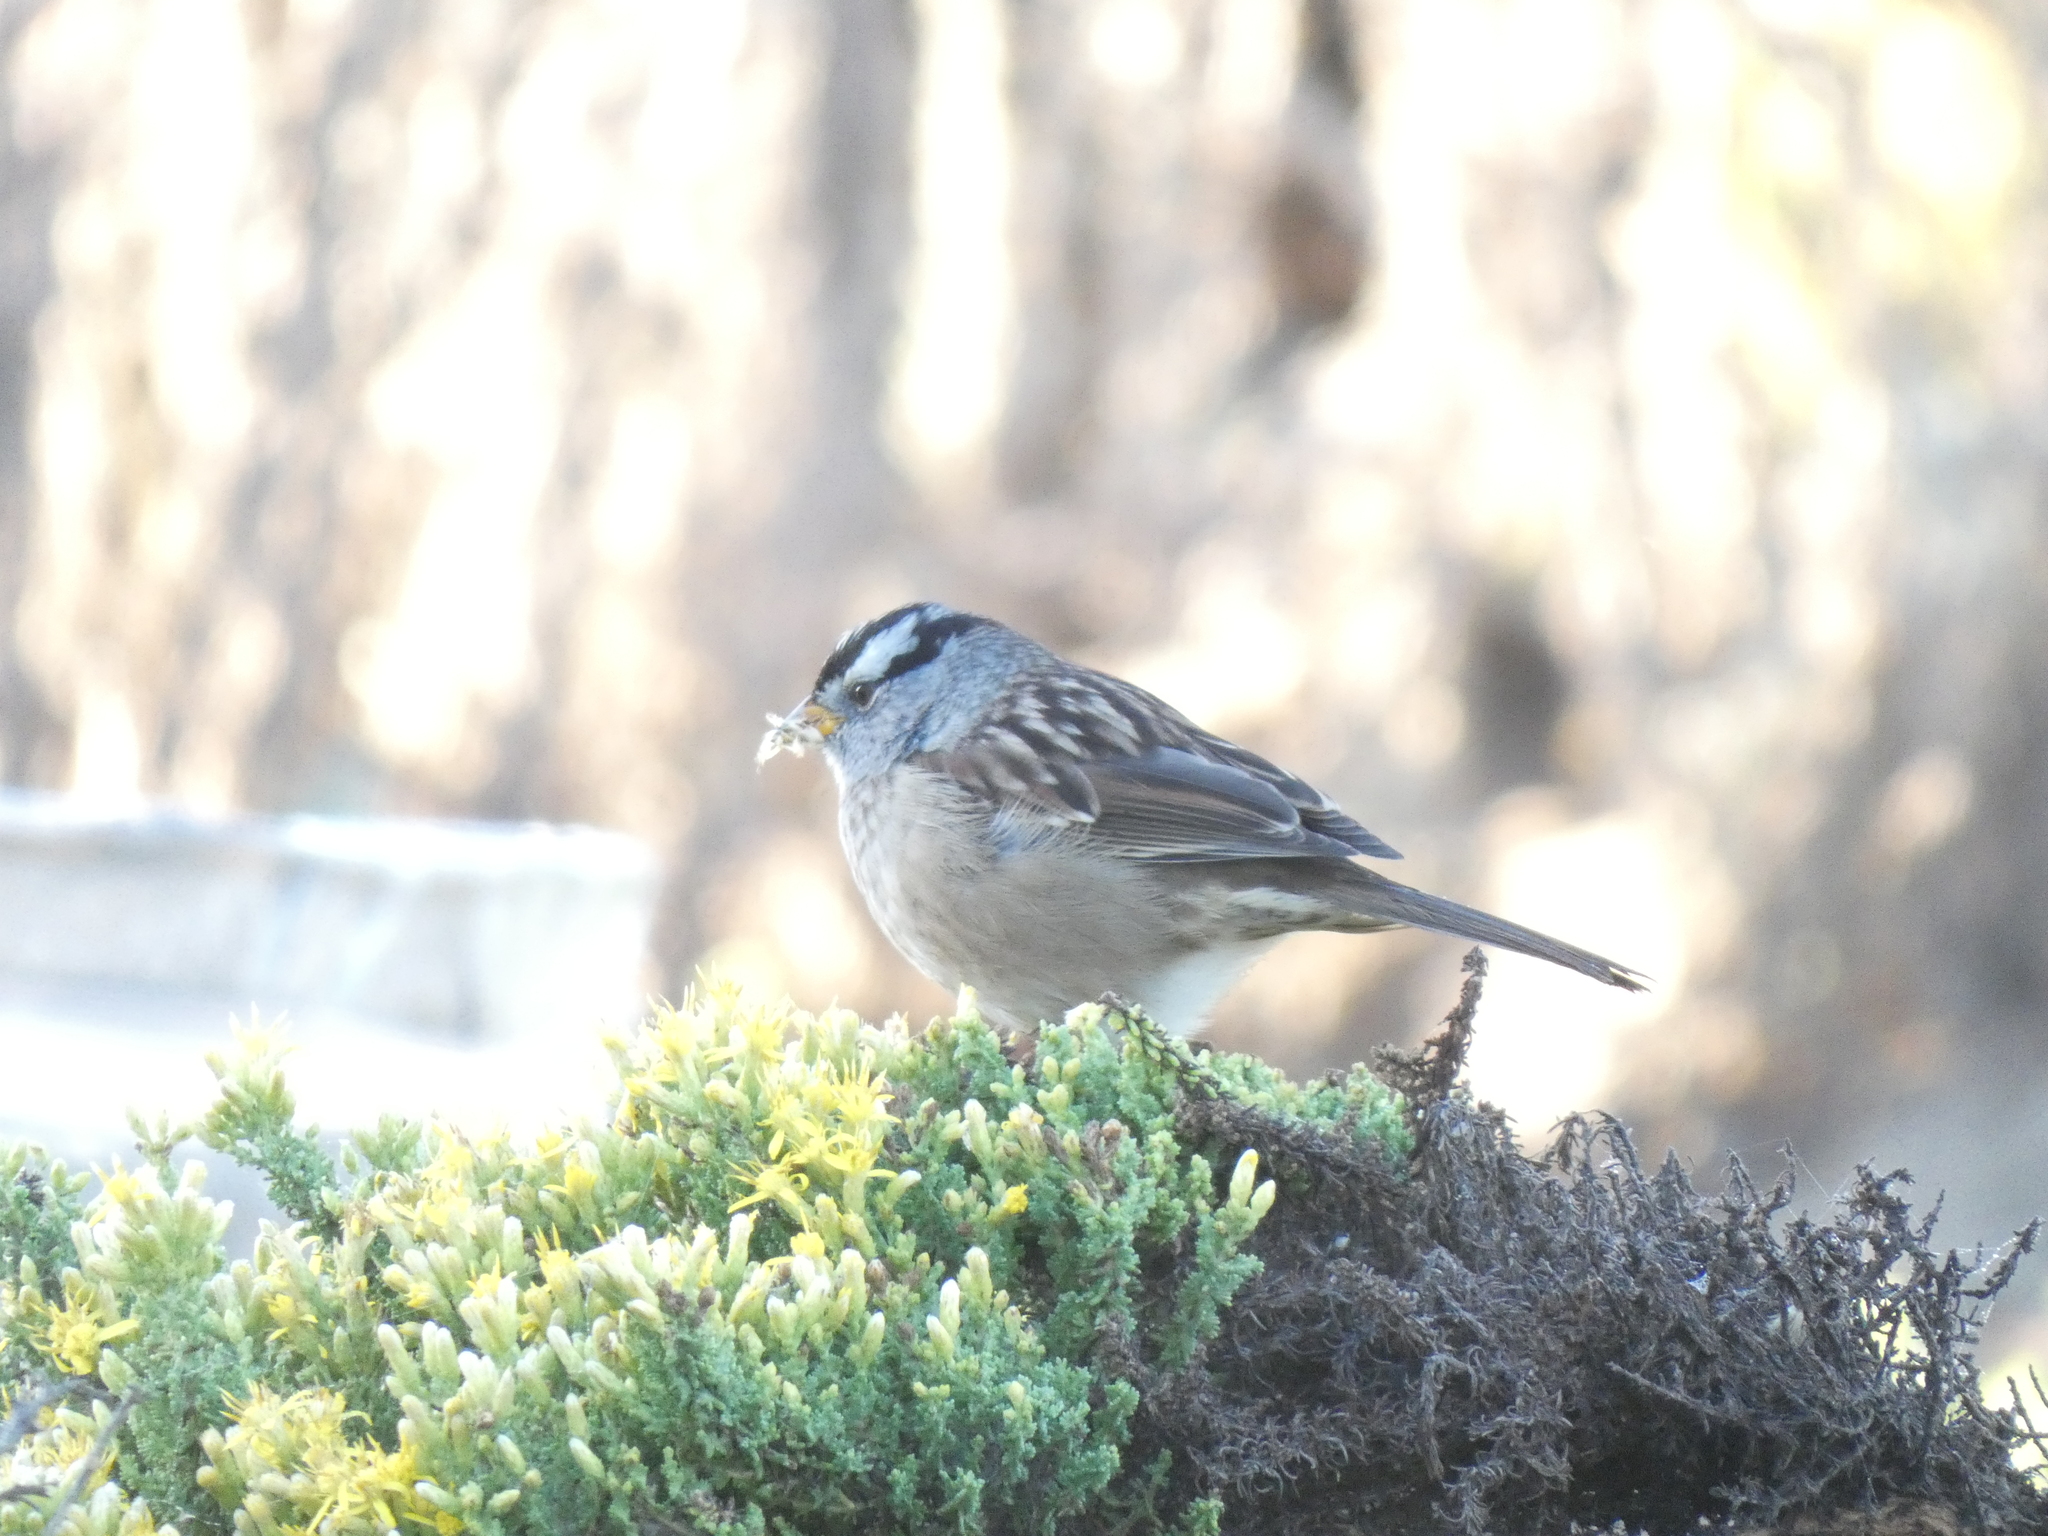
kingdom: Animalia
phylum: Chordata
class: Aves
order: Passeriformes
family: Passerellidae
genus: Zonotrichia
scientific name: Zonotrichia leucophrys
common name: White-crowned sparrow
